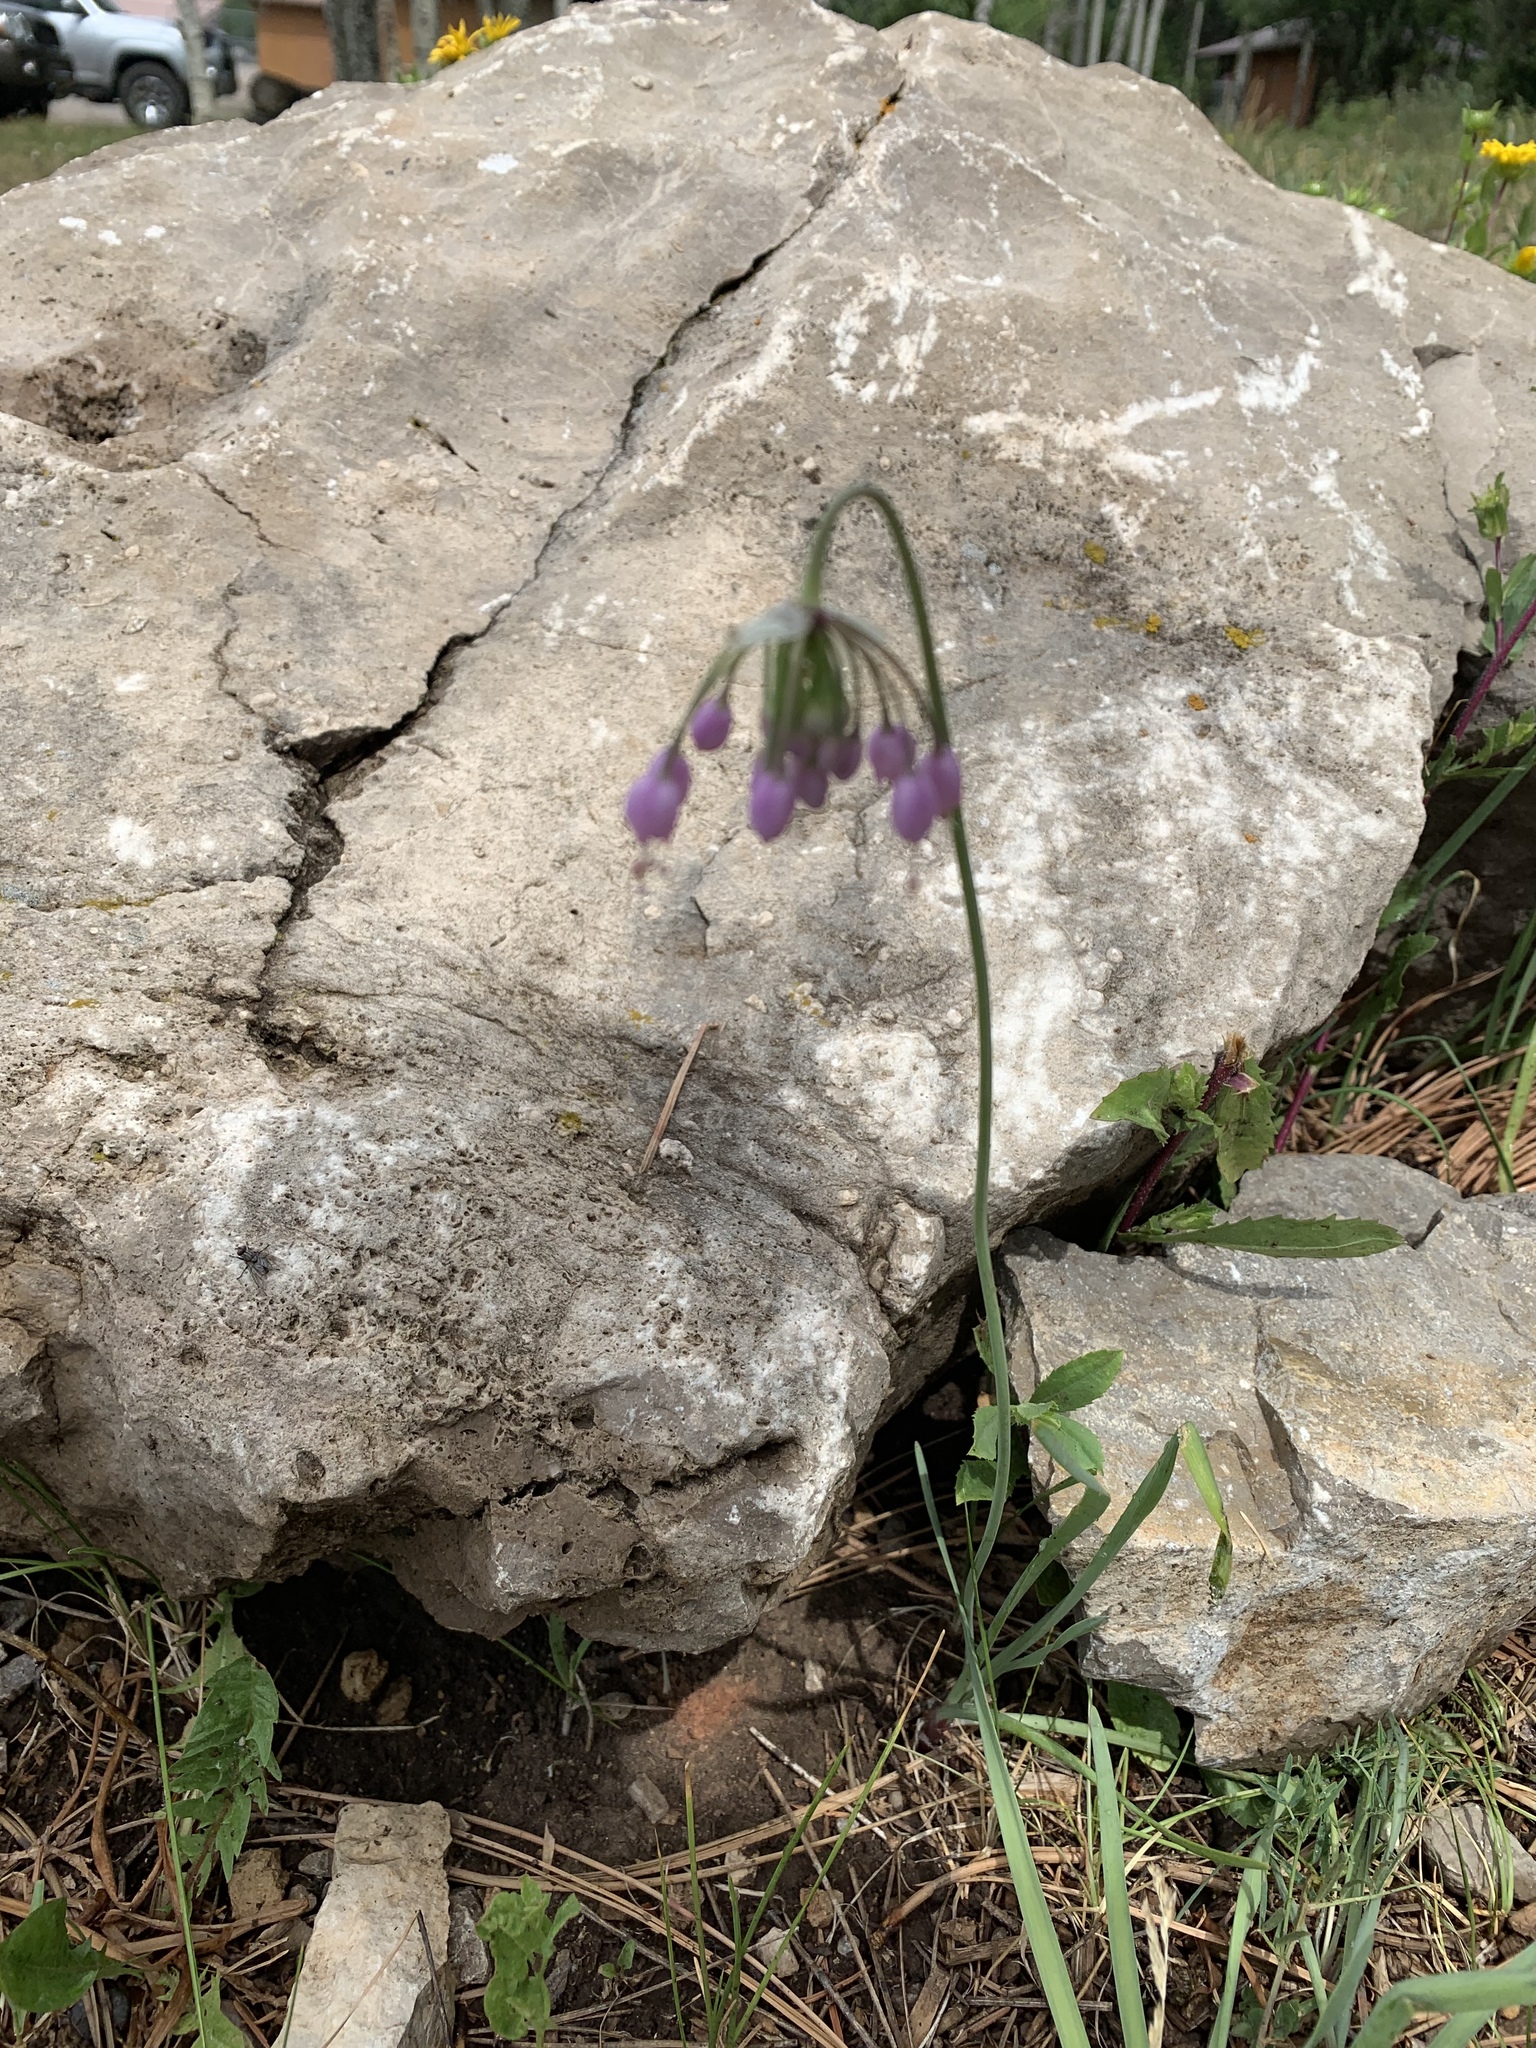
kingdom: Plantae
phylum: Tracheophyta
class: Liliopsida
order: Asparagales
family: Amaryllidaceae
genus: Allium
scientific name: Allium cernuum
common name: Nodding onion
